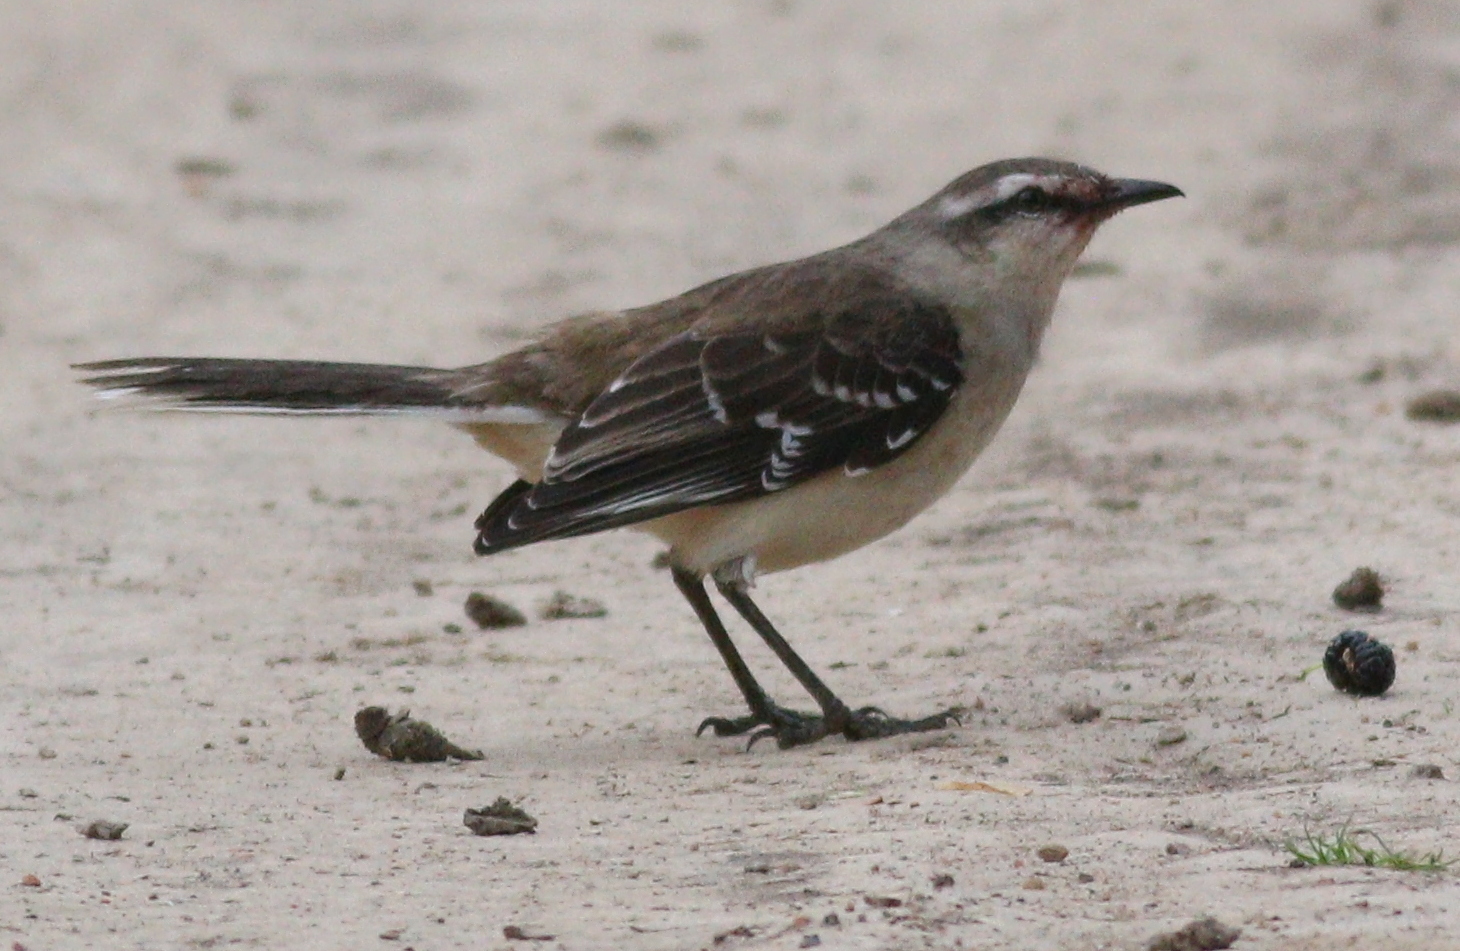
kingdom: Animalia
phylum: Chordata
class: Aves
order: Passeriformes
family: Mimidae
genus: Mimus
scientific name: Mimus saturninus
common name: Chalk-browed mockingbird
